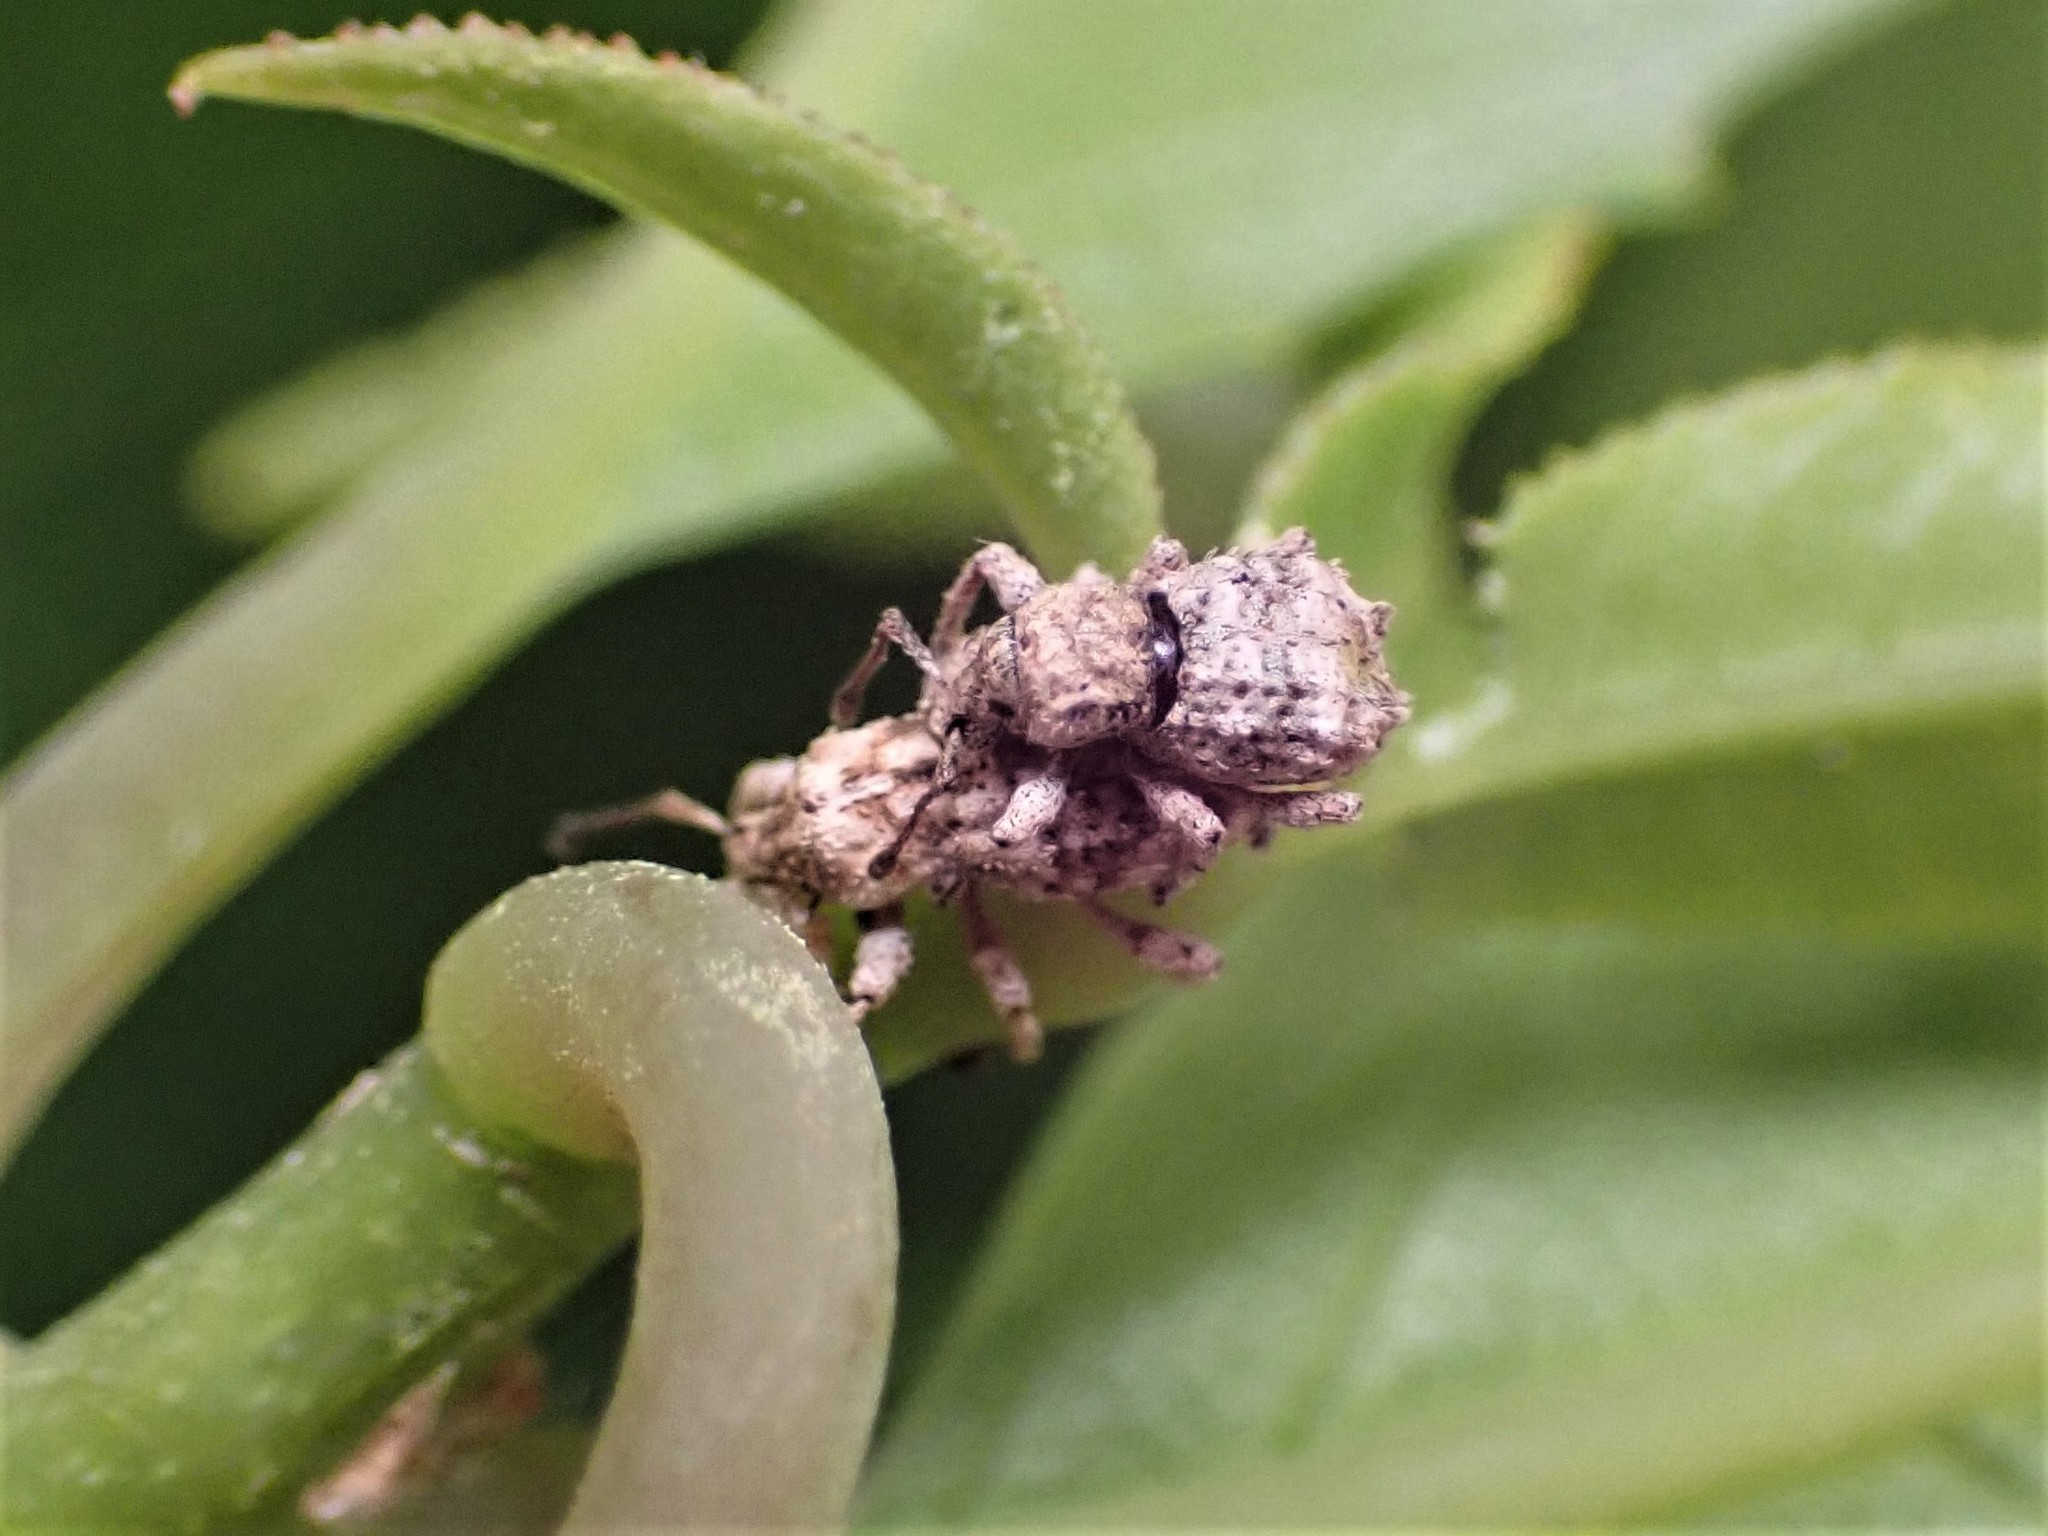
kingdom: Animalia
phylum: Arthropoda
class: Insecta
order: Coleoptera
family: Curculionidae
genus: Brachyolus
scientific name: Brachyolus punctatus
